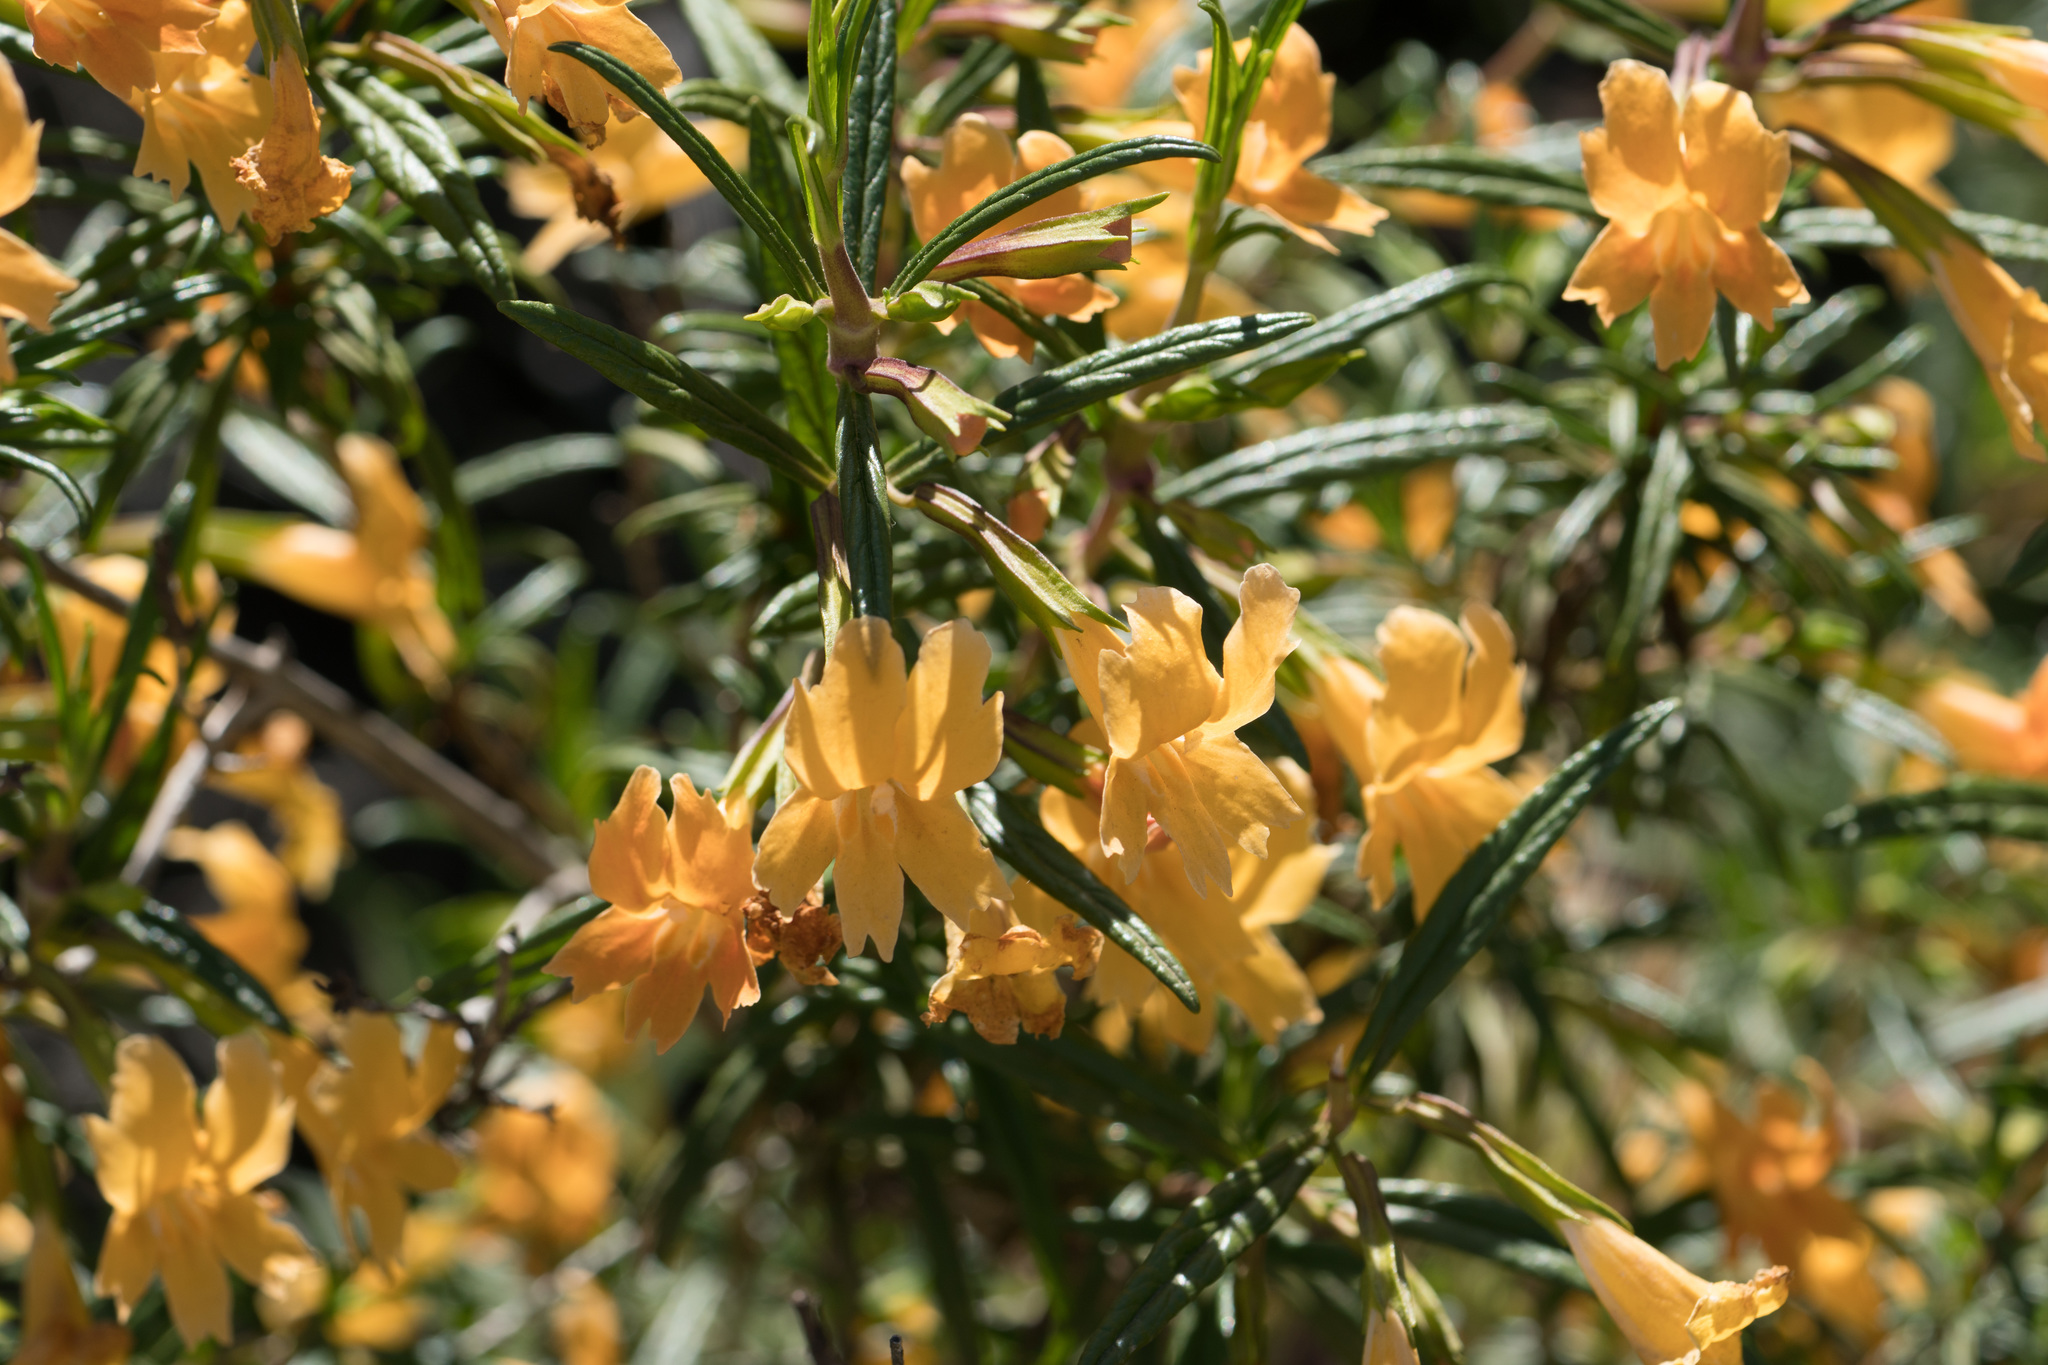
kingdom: Plantae
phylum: Tracheophyta
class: Magnoliopsida
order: Fabales
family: Fabaceae
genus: Acmispon
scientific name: Acmispon glaber
